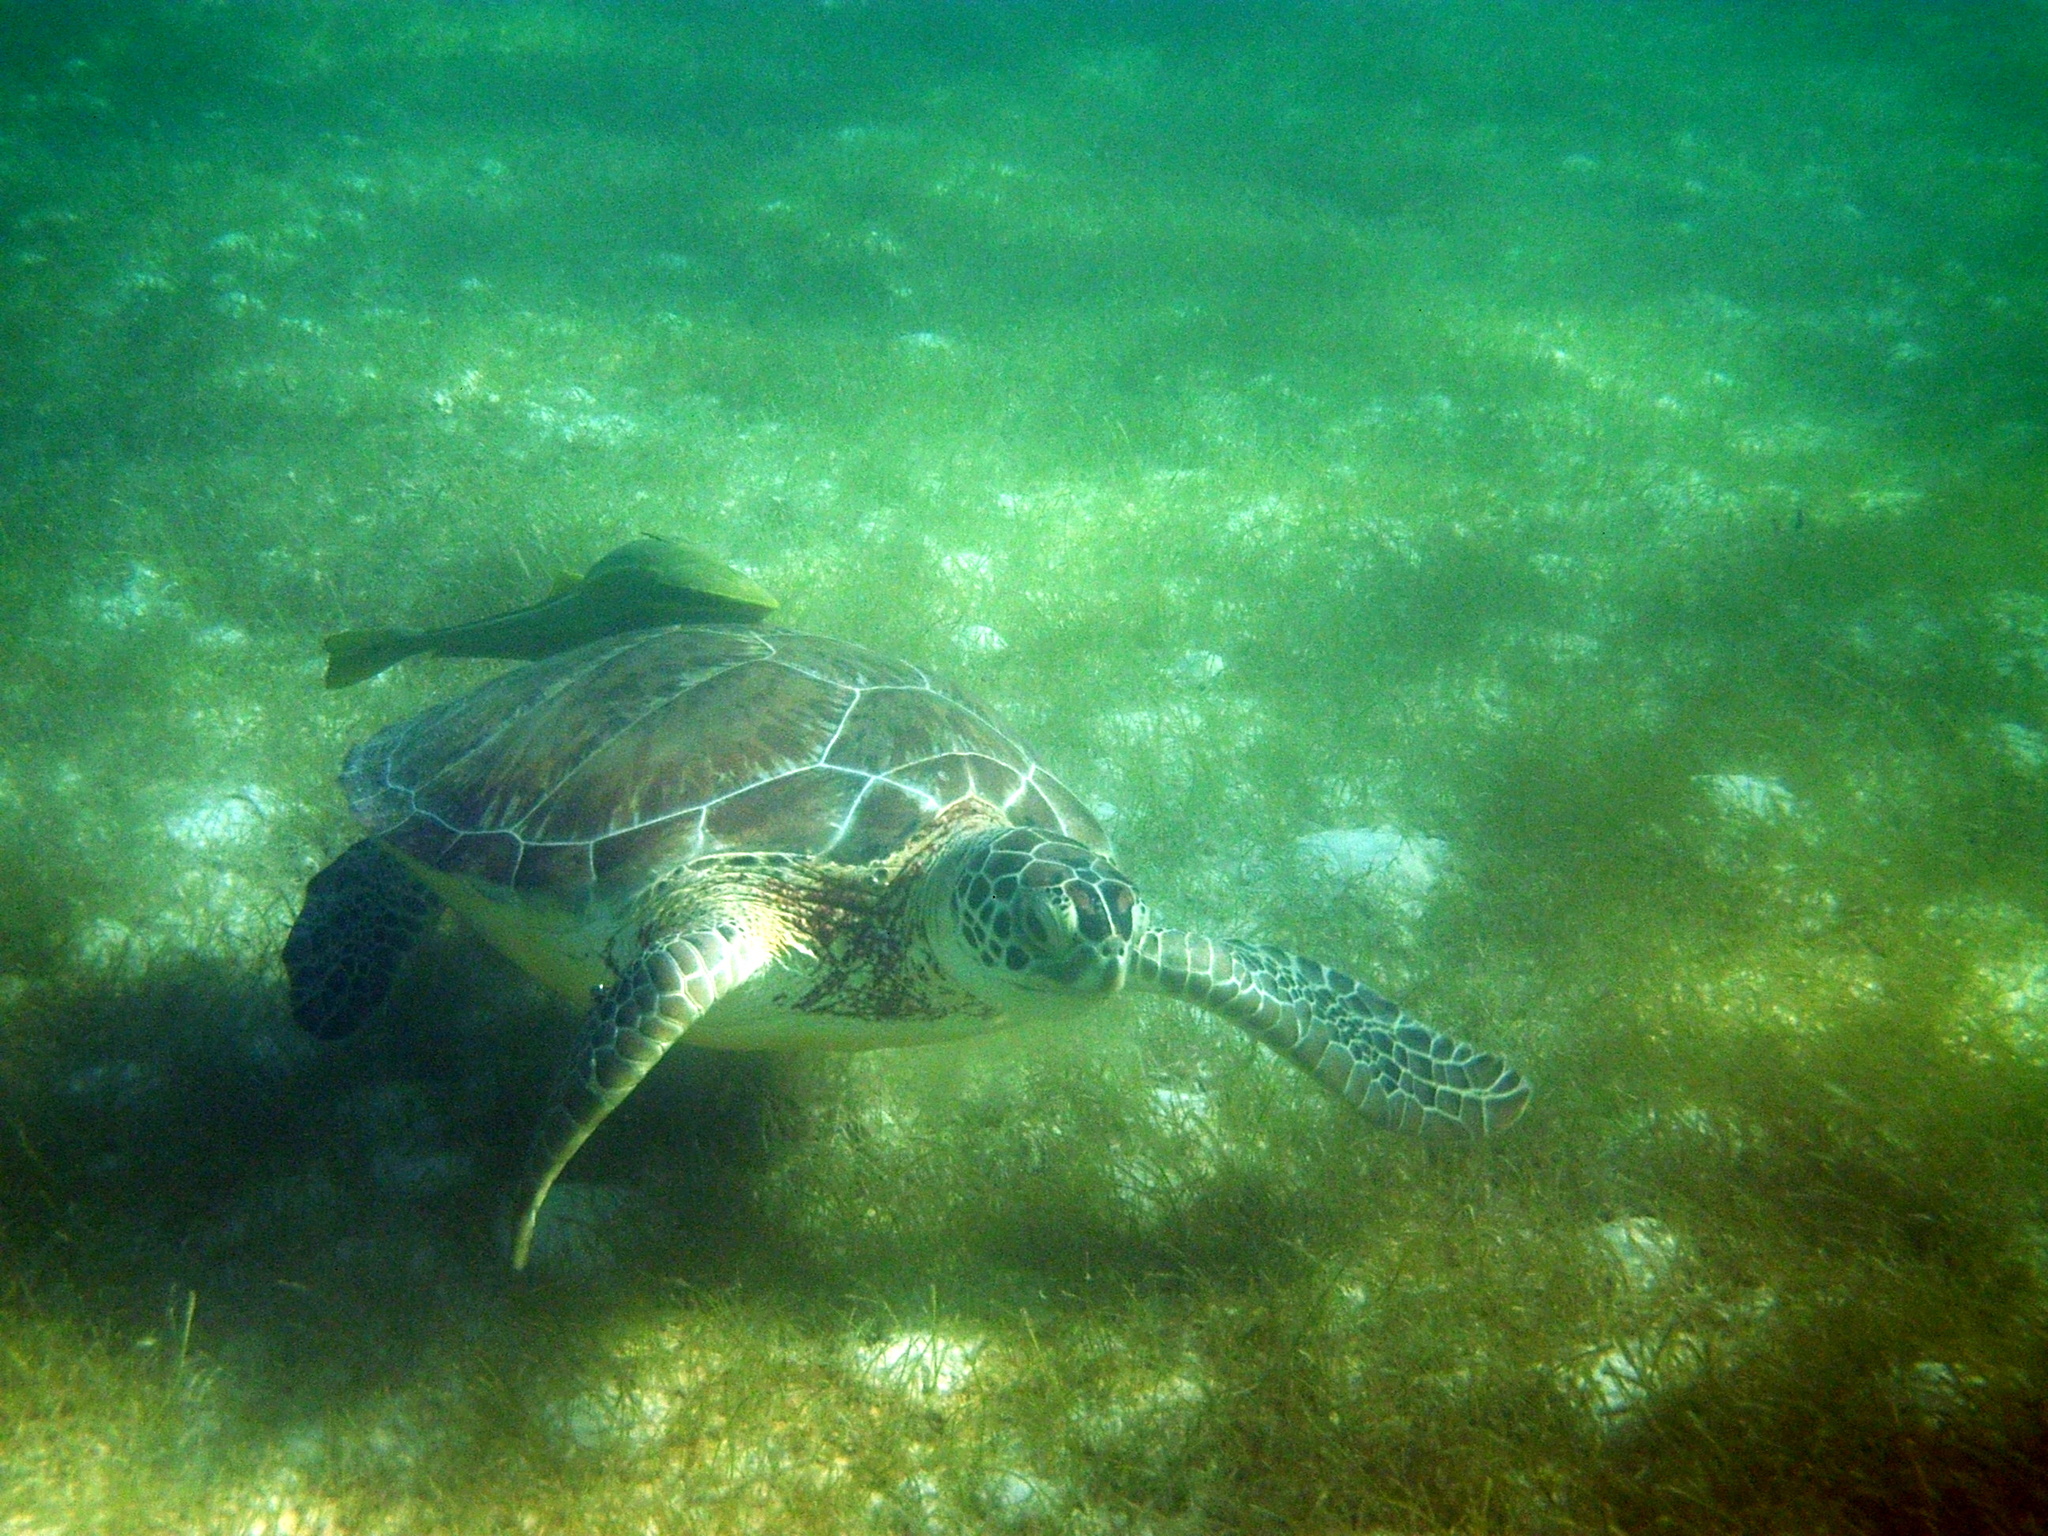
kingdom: Animalia
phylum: Chordata
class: Testudines
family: Cheloniidae
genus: Chelonia
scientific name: Chelonia mydas
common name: Green turtle
